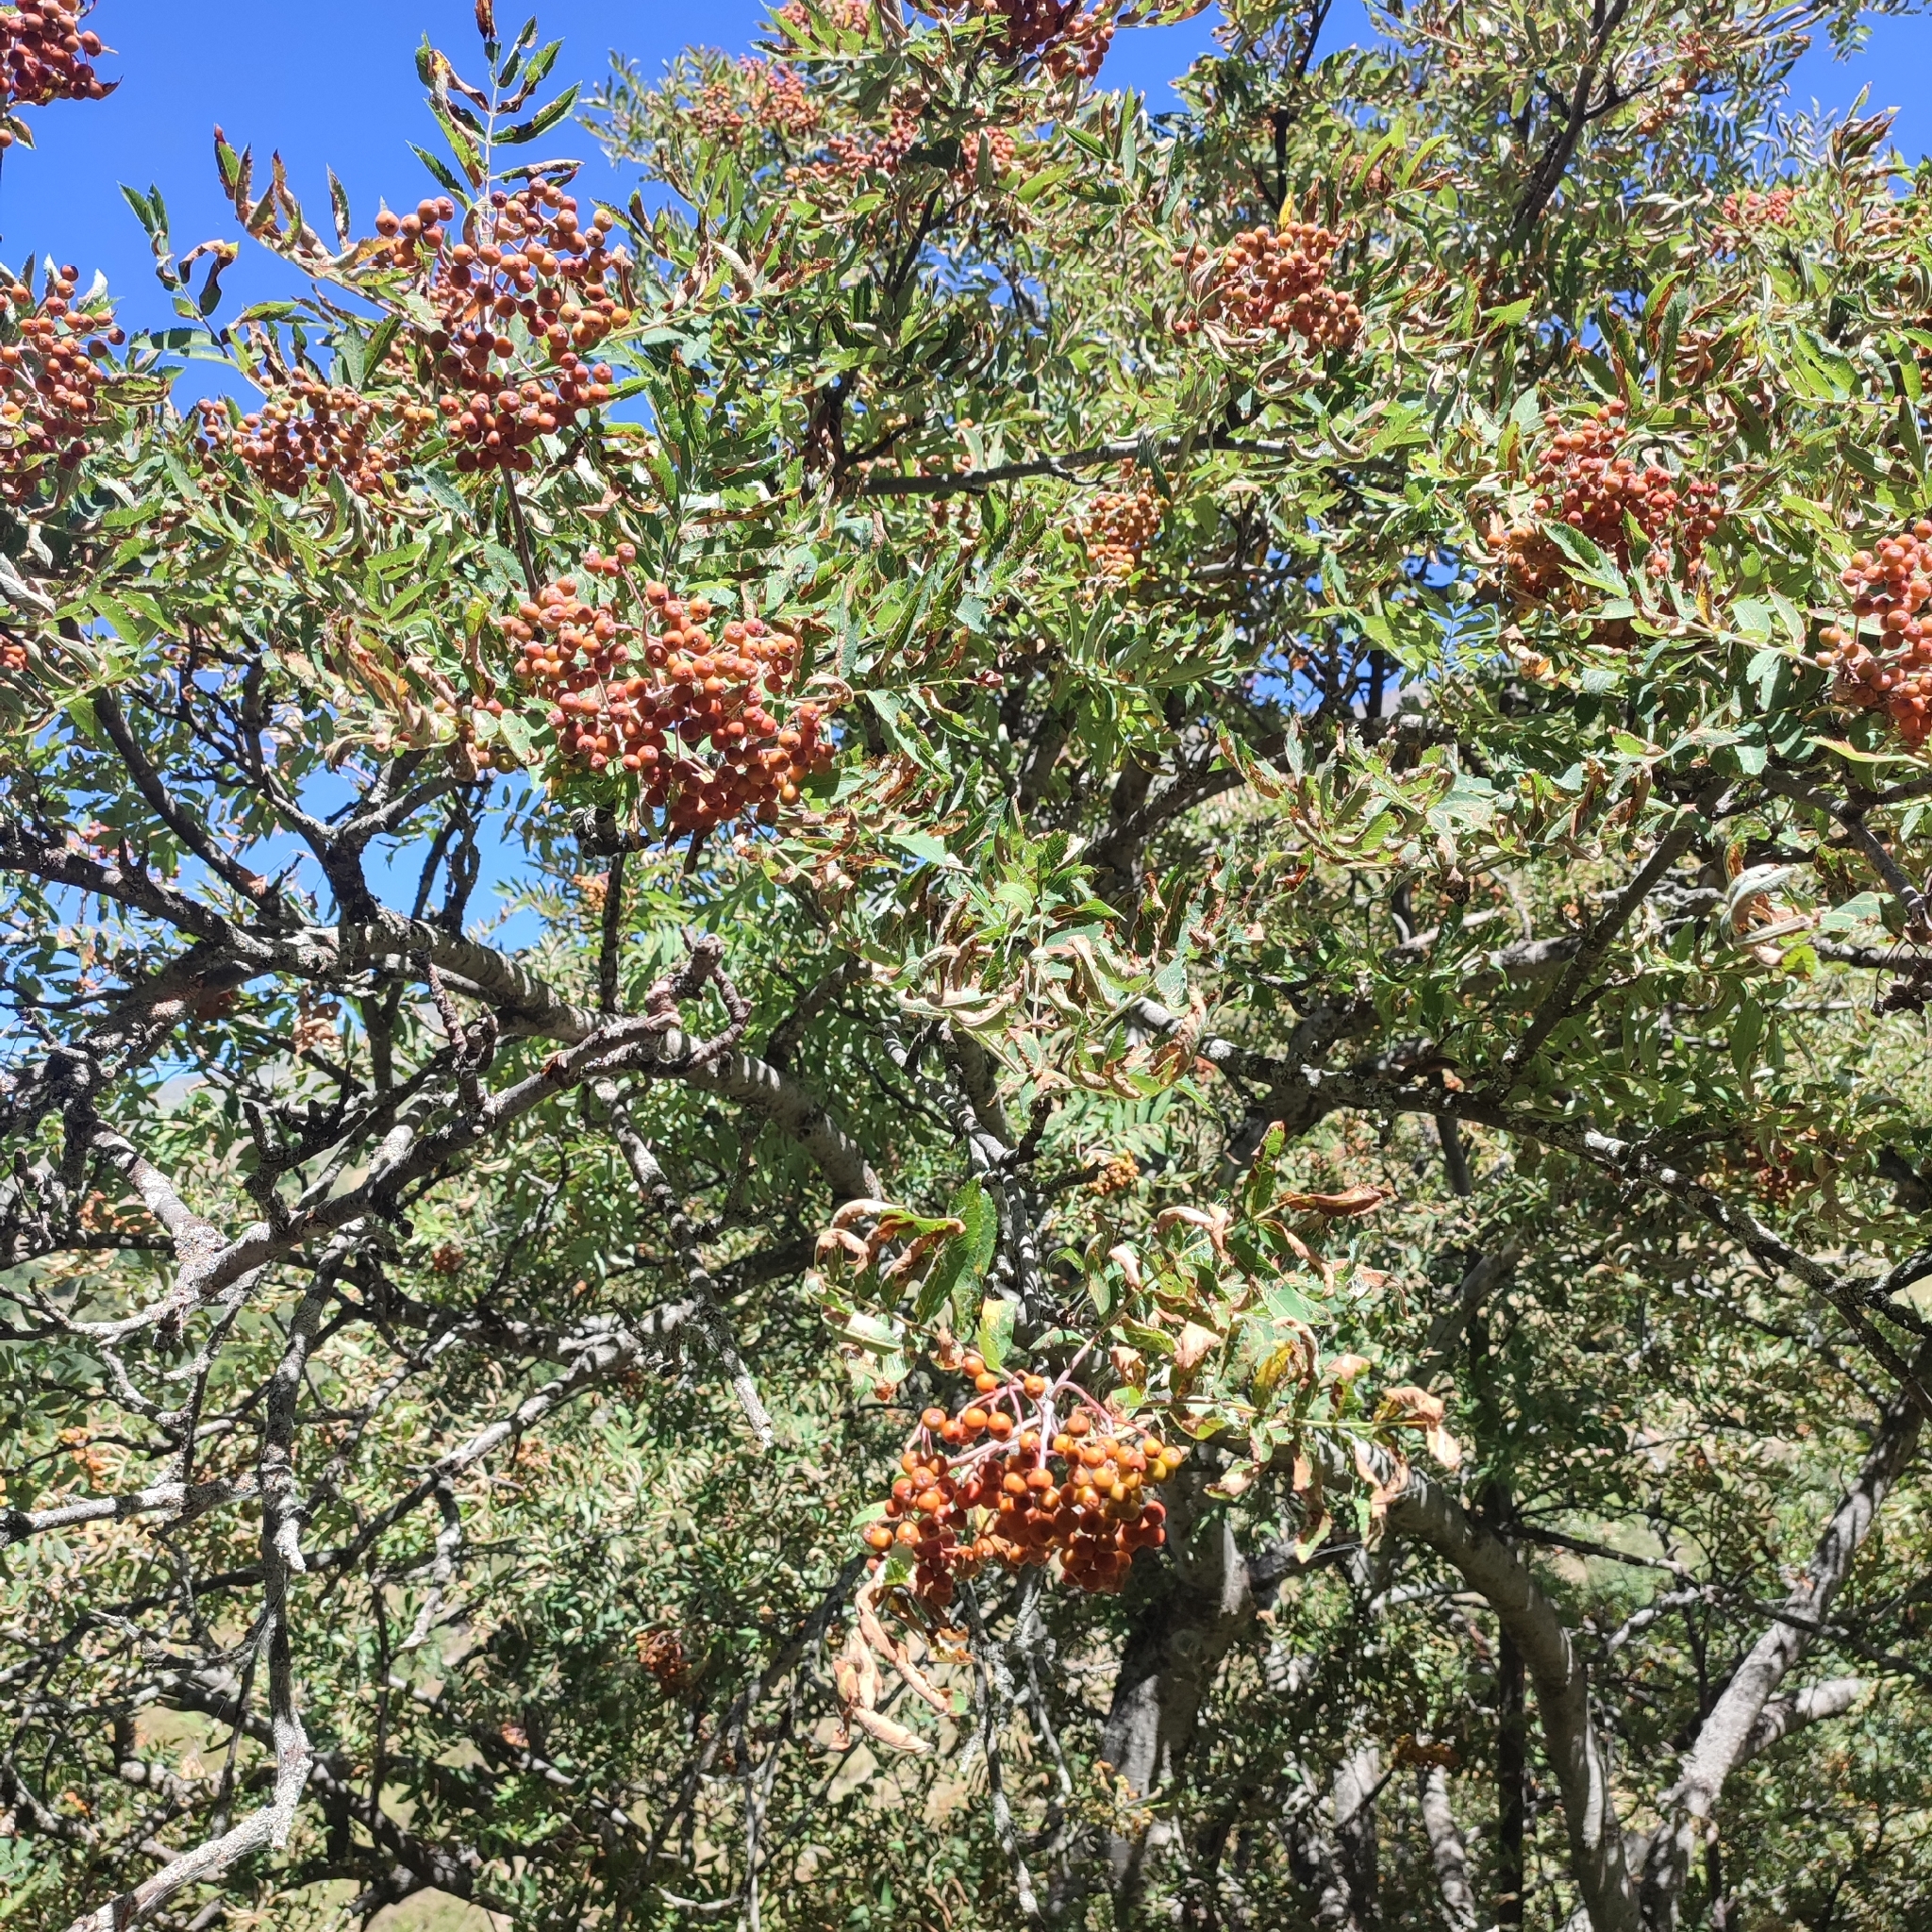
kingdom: Plantae
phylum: Tracheophyta
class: Magnoliopsida
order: Rosales
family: Rosaceae
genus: Sorbus
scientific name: Sorbus aucuparia
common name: Rowan
